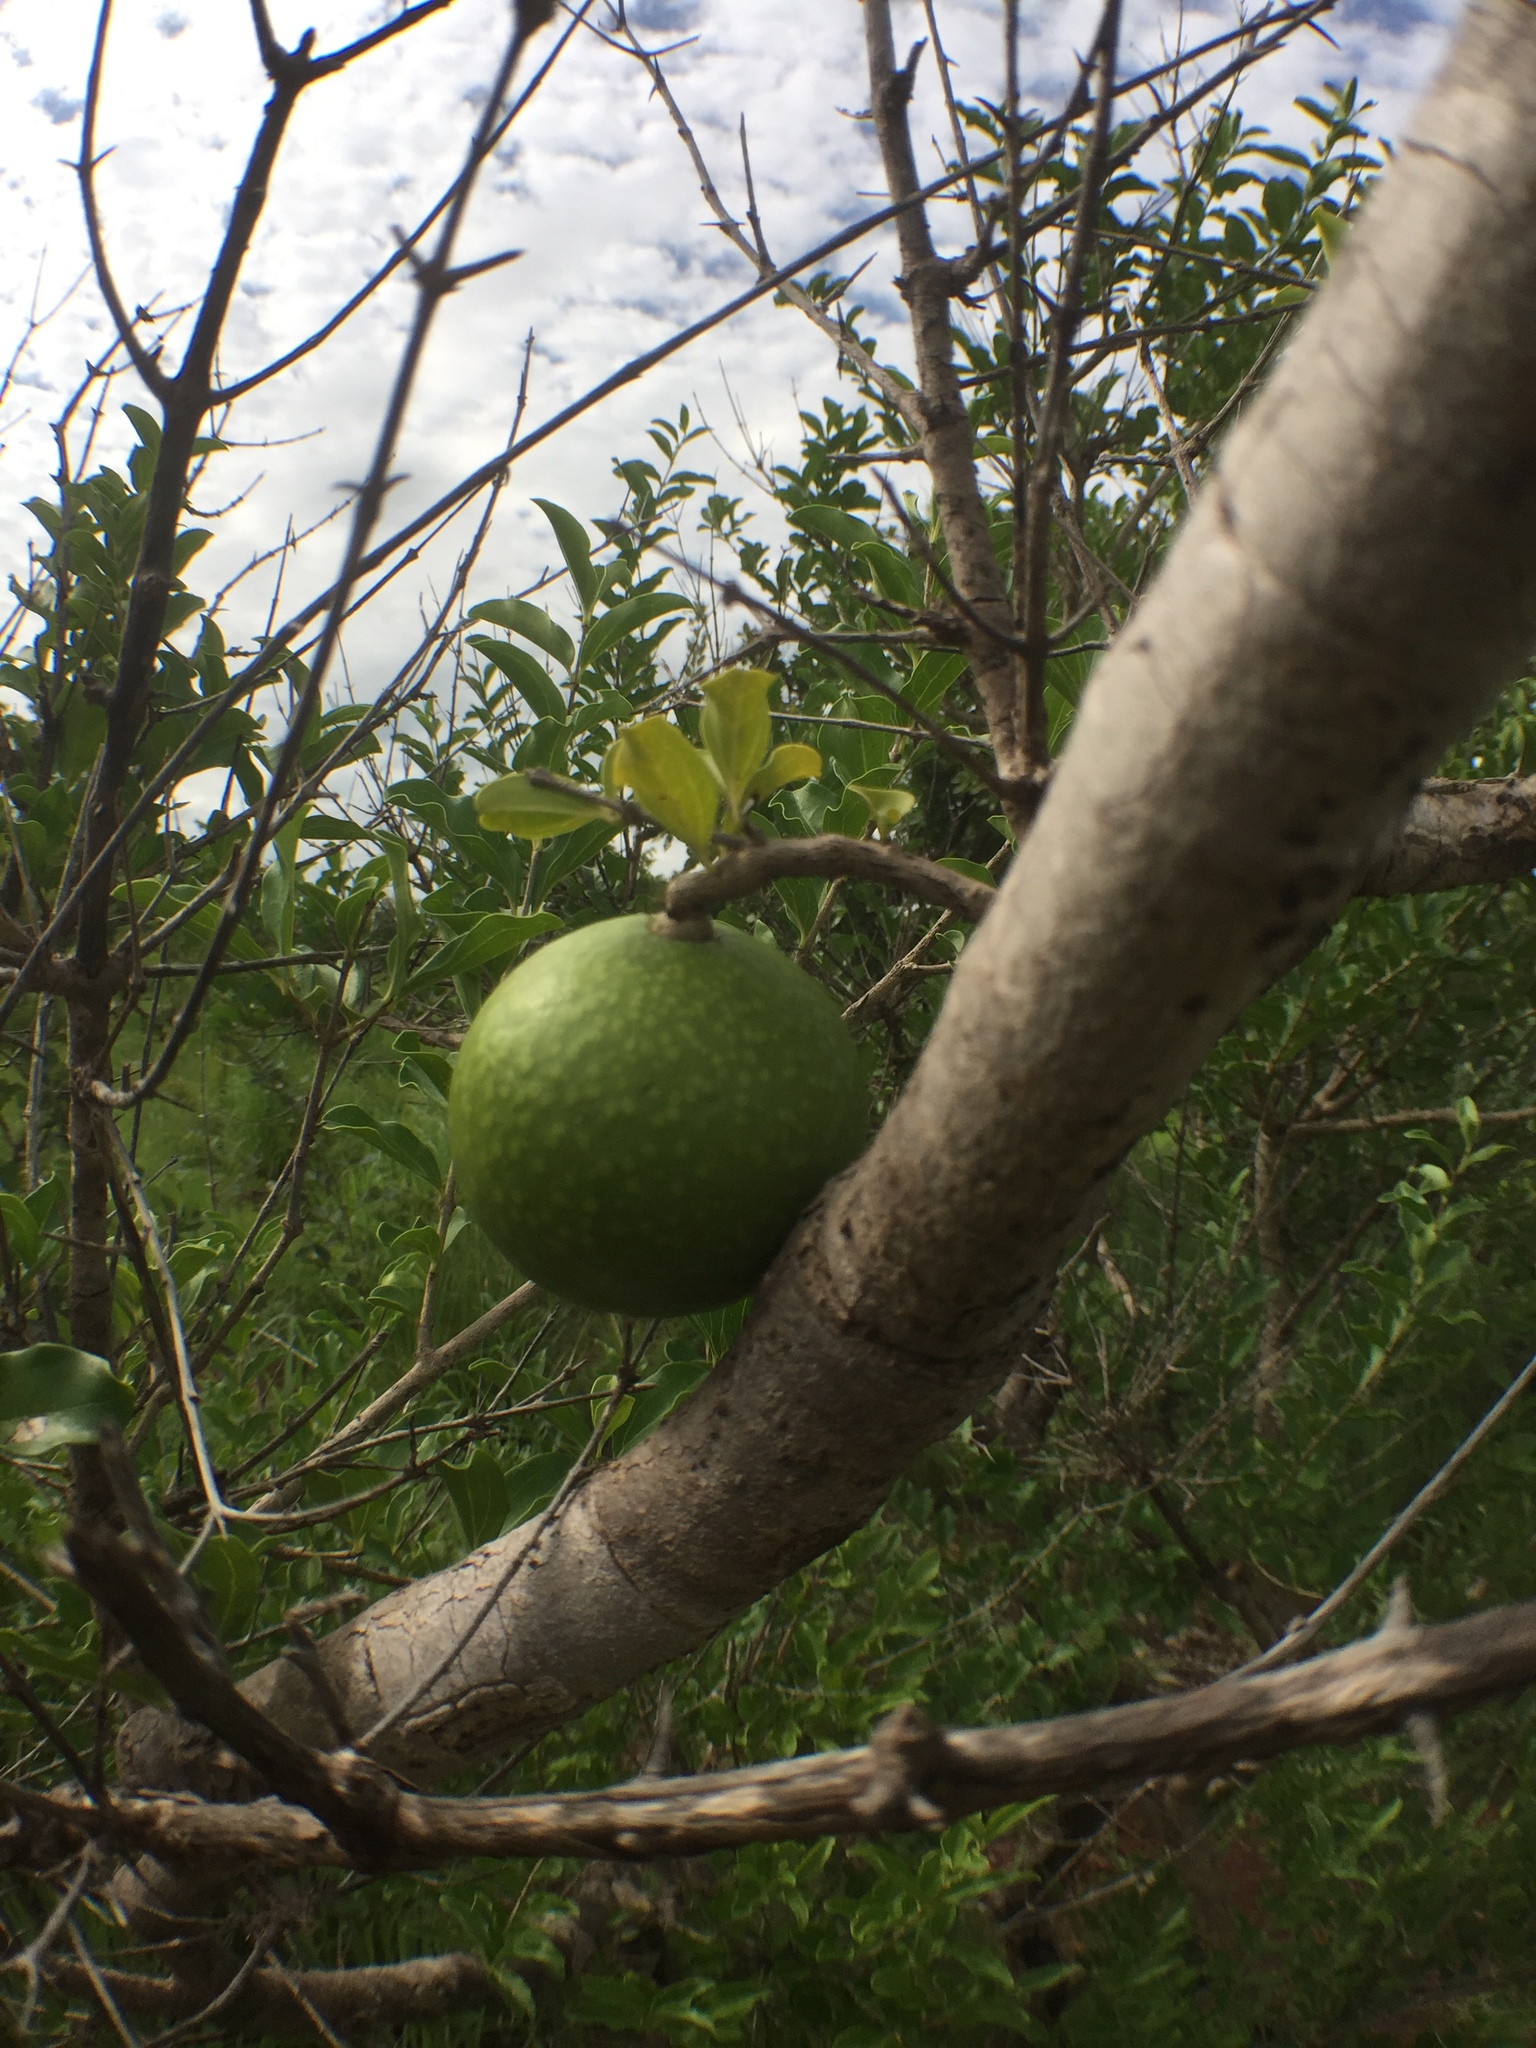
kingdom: Plantae
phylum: Tracheophyta
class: Magnoliopsida
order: Gentianales
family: Loganiaceae
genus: Strychnos
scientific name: Strychnos spinosa
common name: Natal orange
